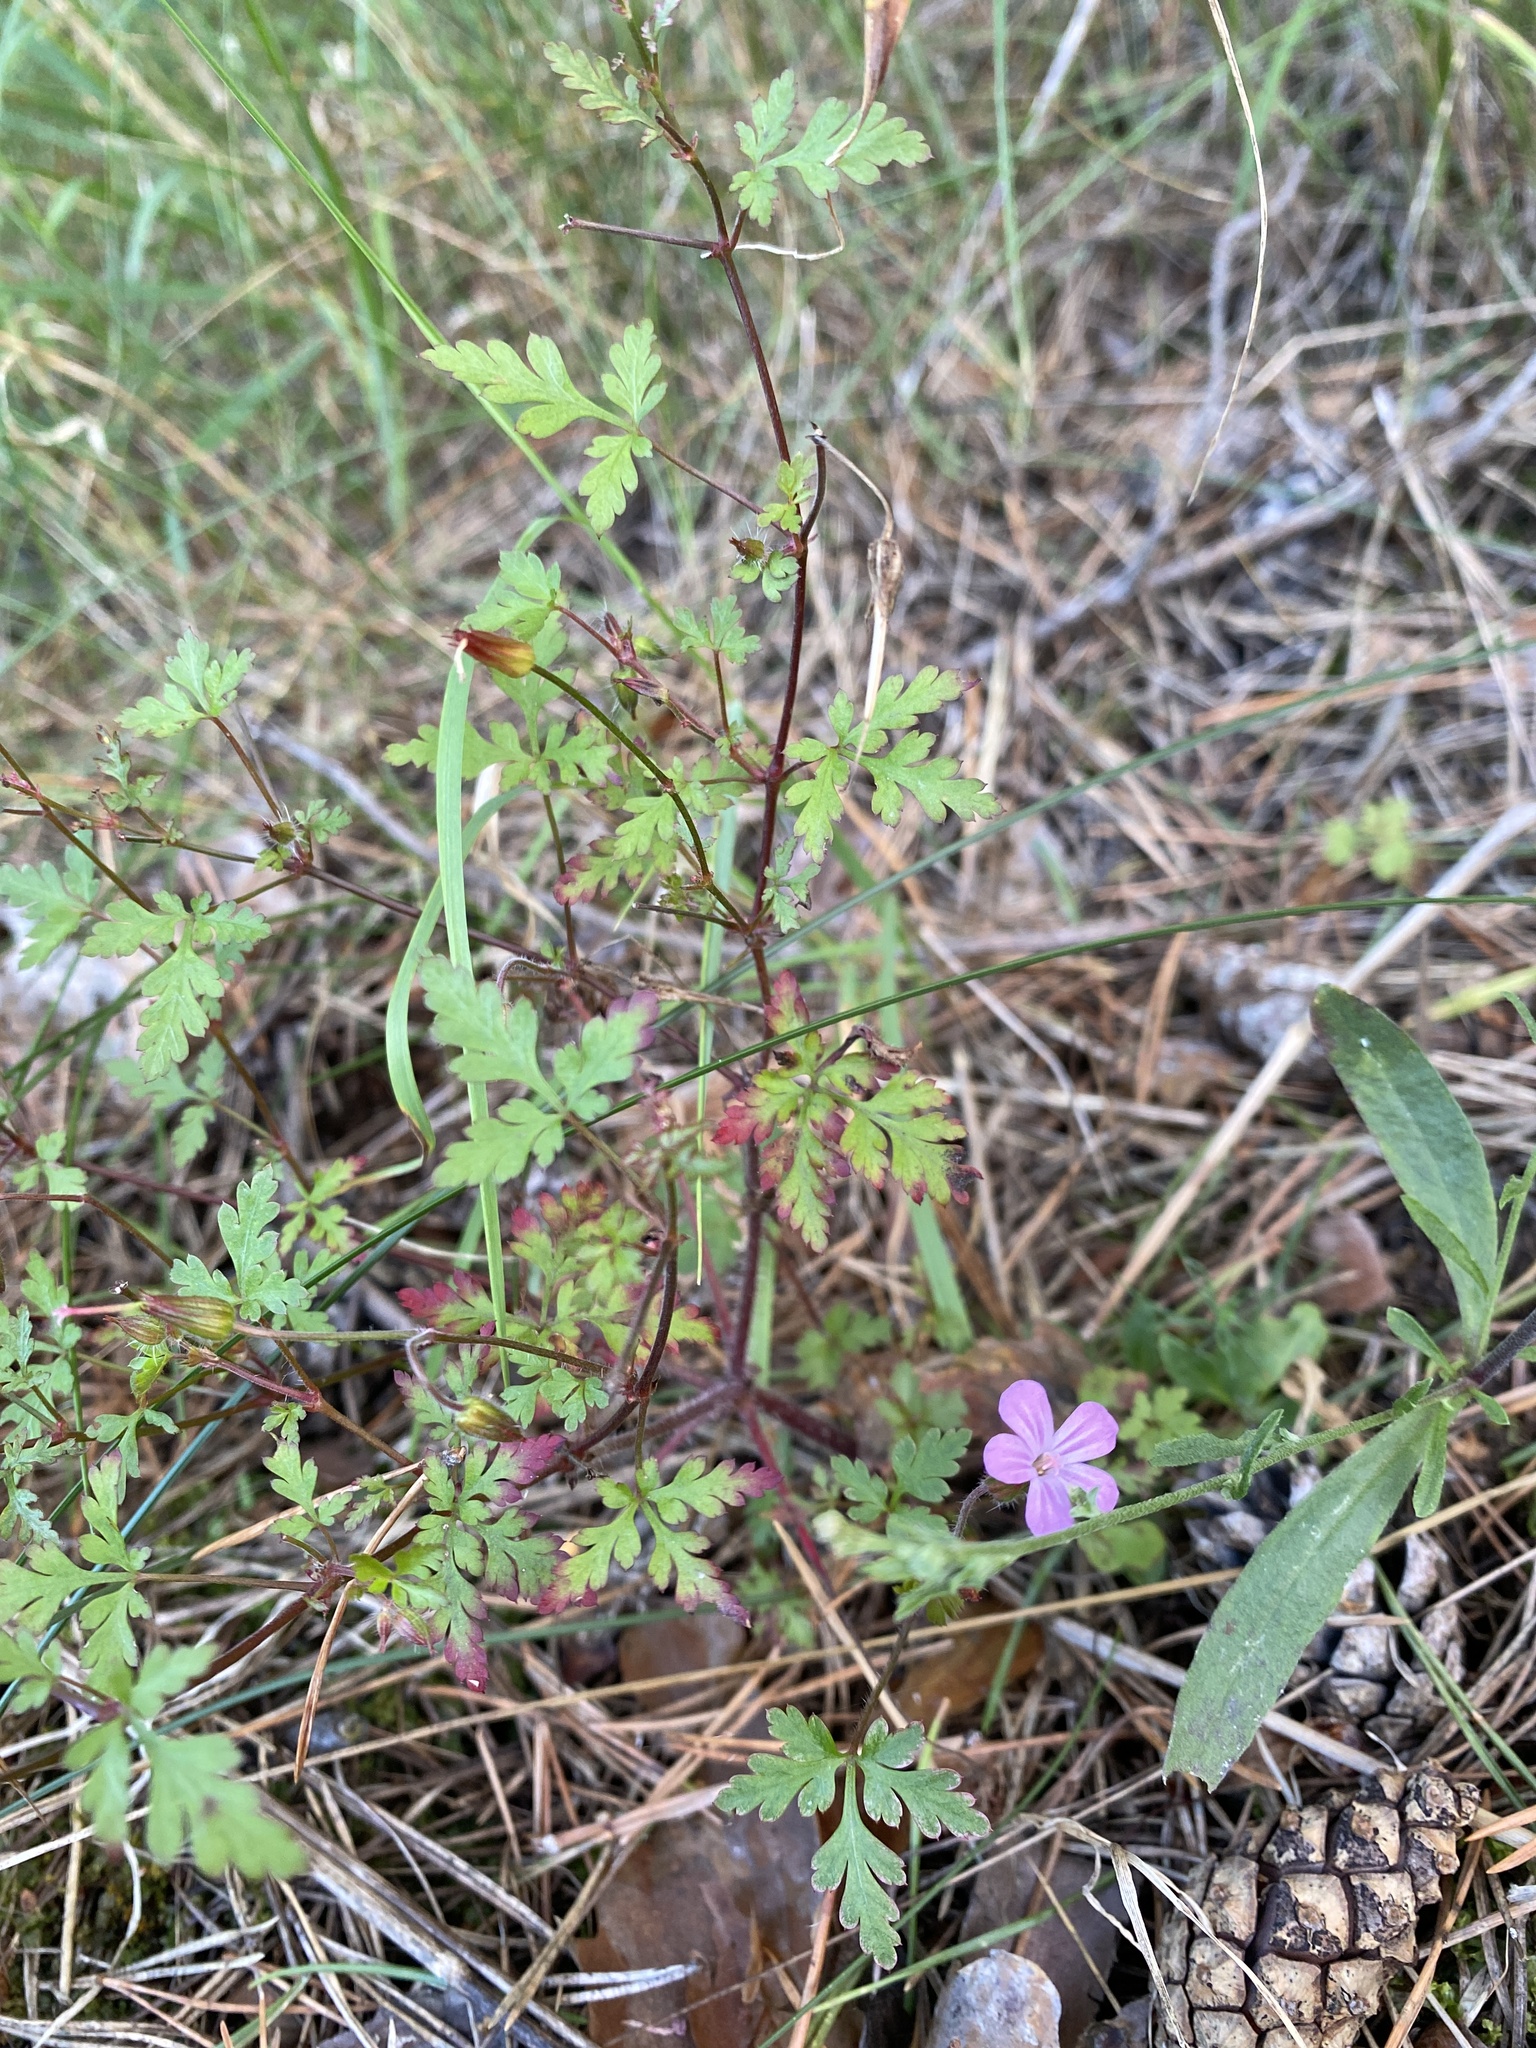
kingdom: Plantae
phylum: Tracheophyta
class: Magnoliopsida
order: Geraniales
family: Geraniaceae
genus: Geranium
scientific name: Geranium robertianum
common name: Herb-robert
